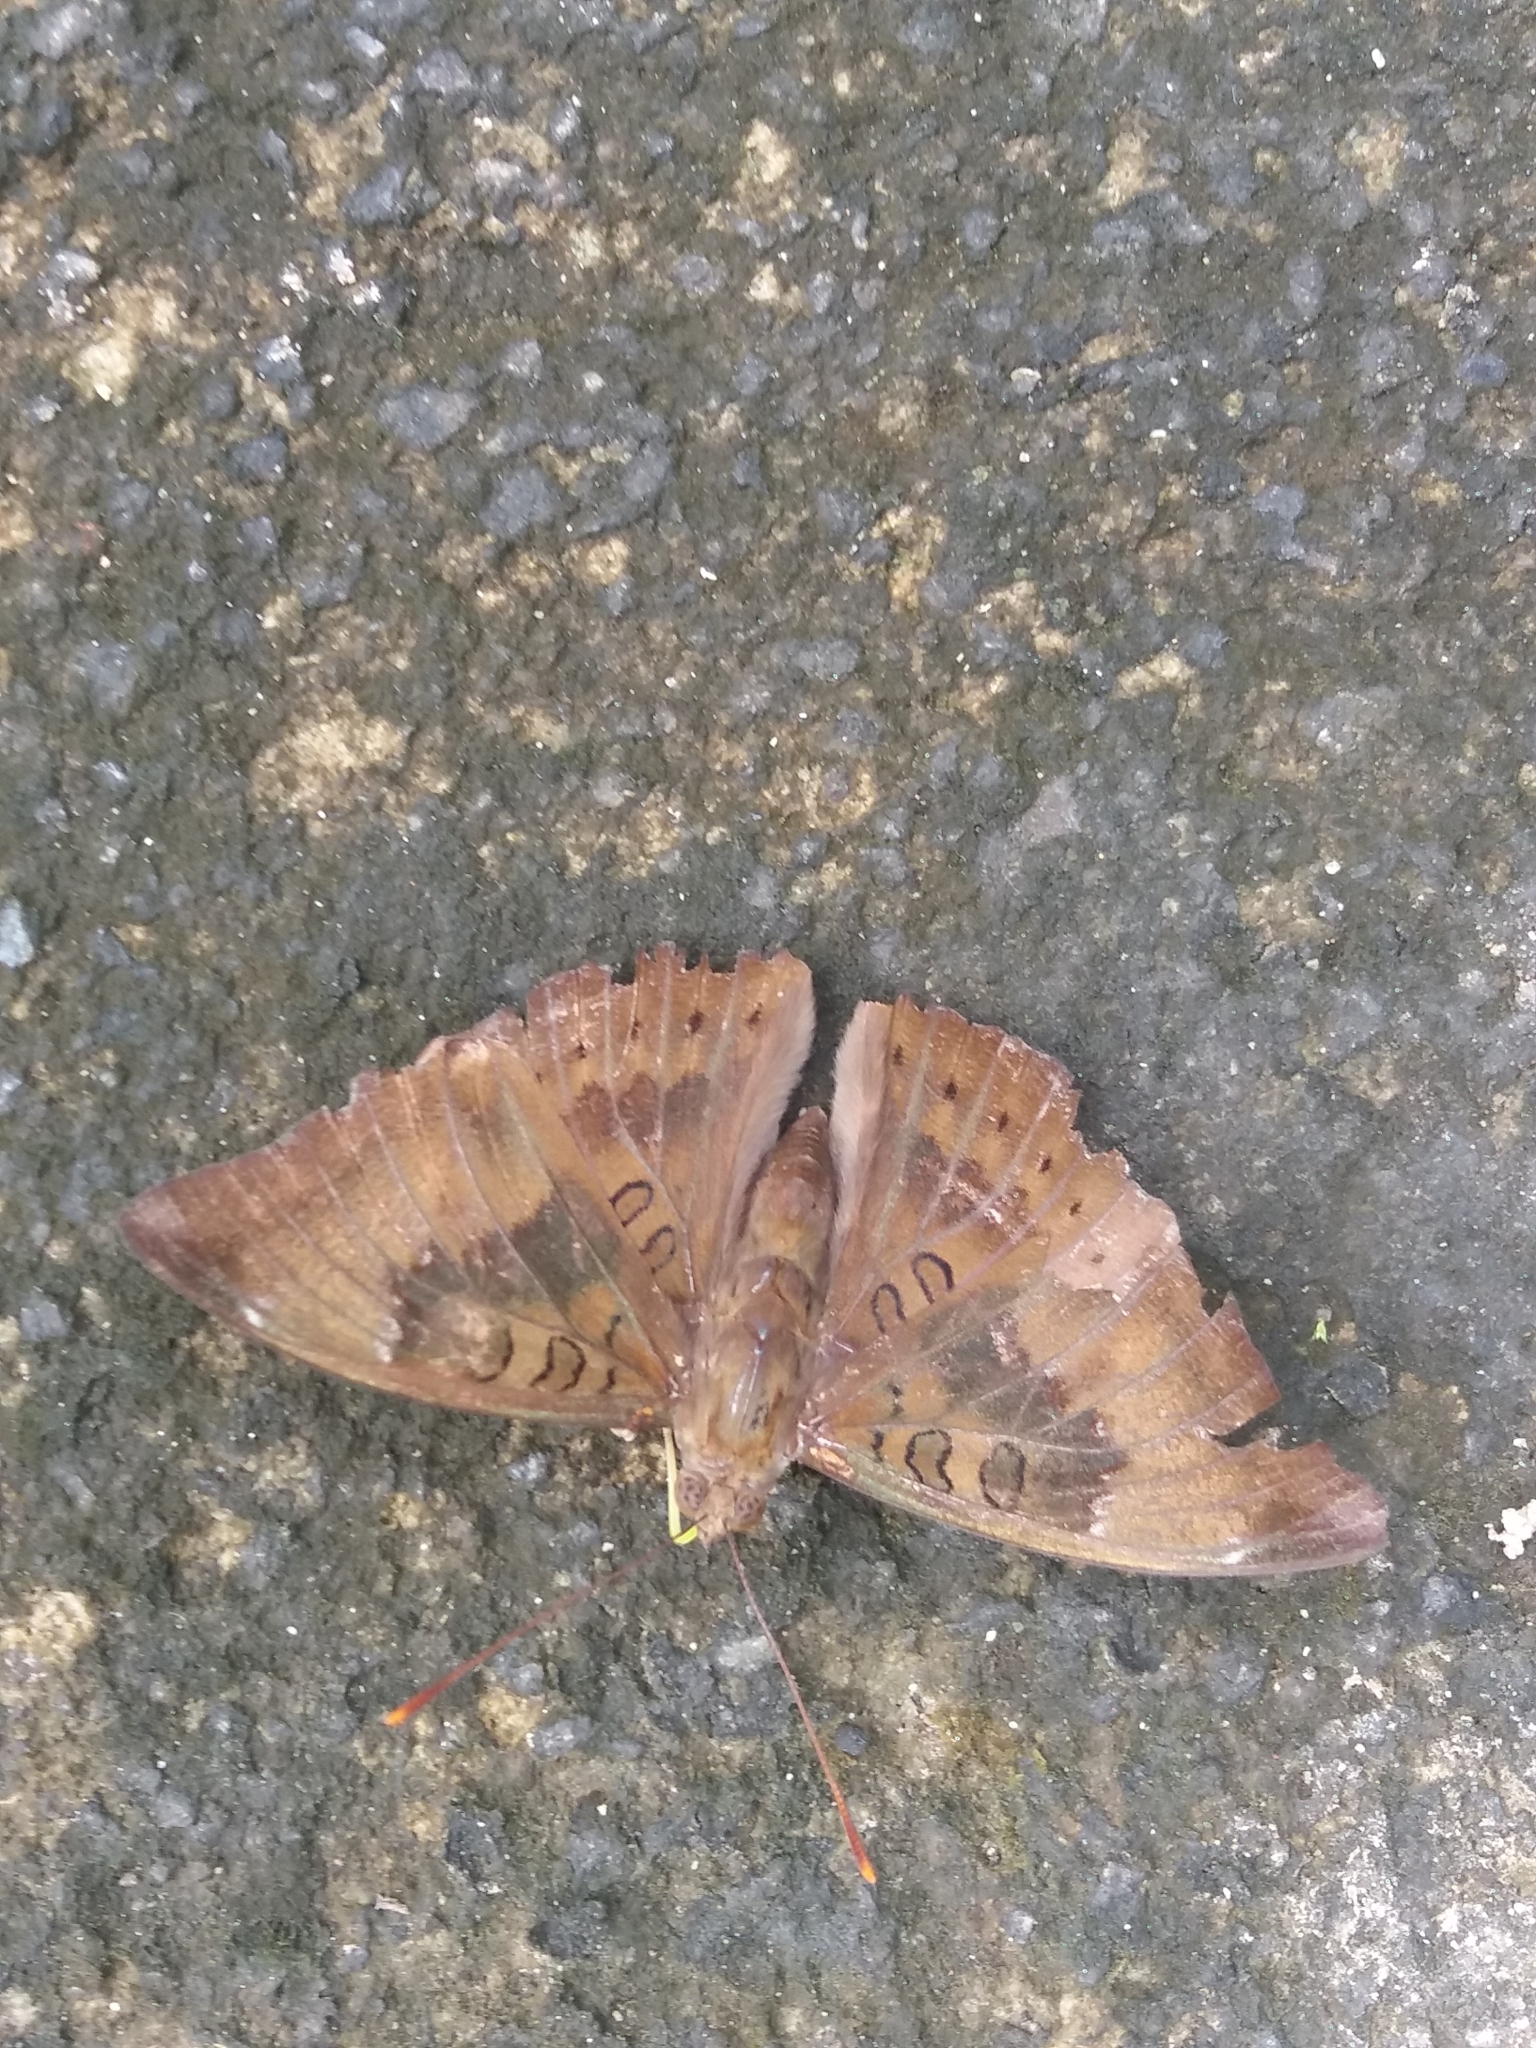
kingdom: Animalia
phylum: Arthropoda
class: Insecta
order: Lepidoptera
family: Nymphalidae
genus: Euthalia
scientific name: Euthalia aconthea
